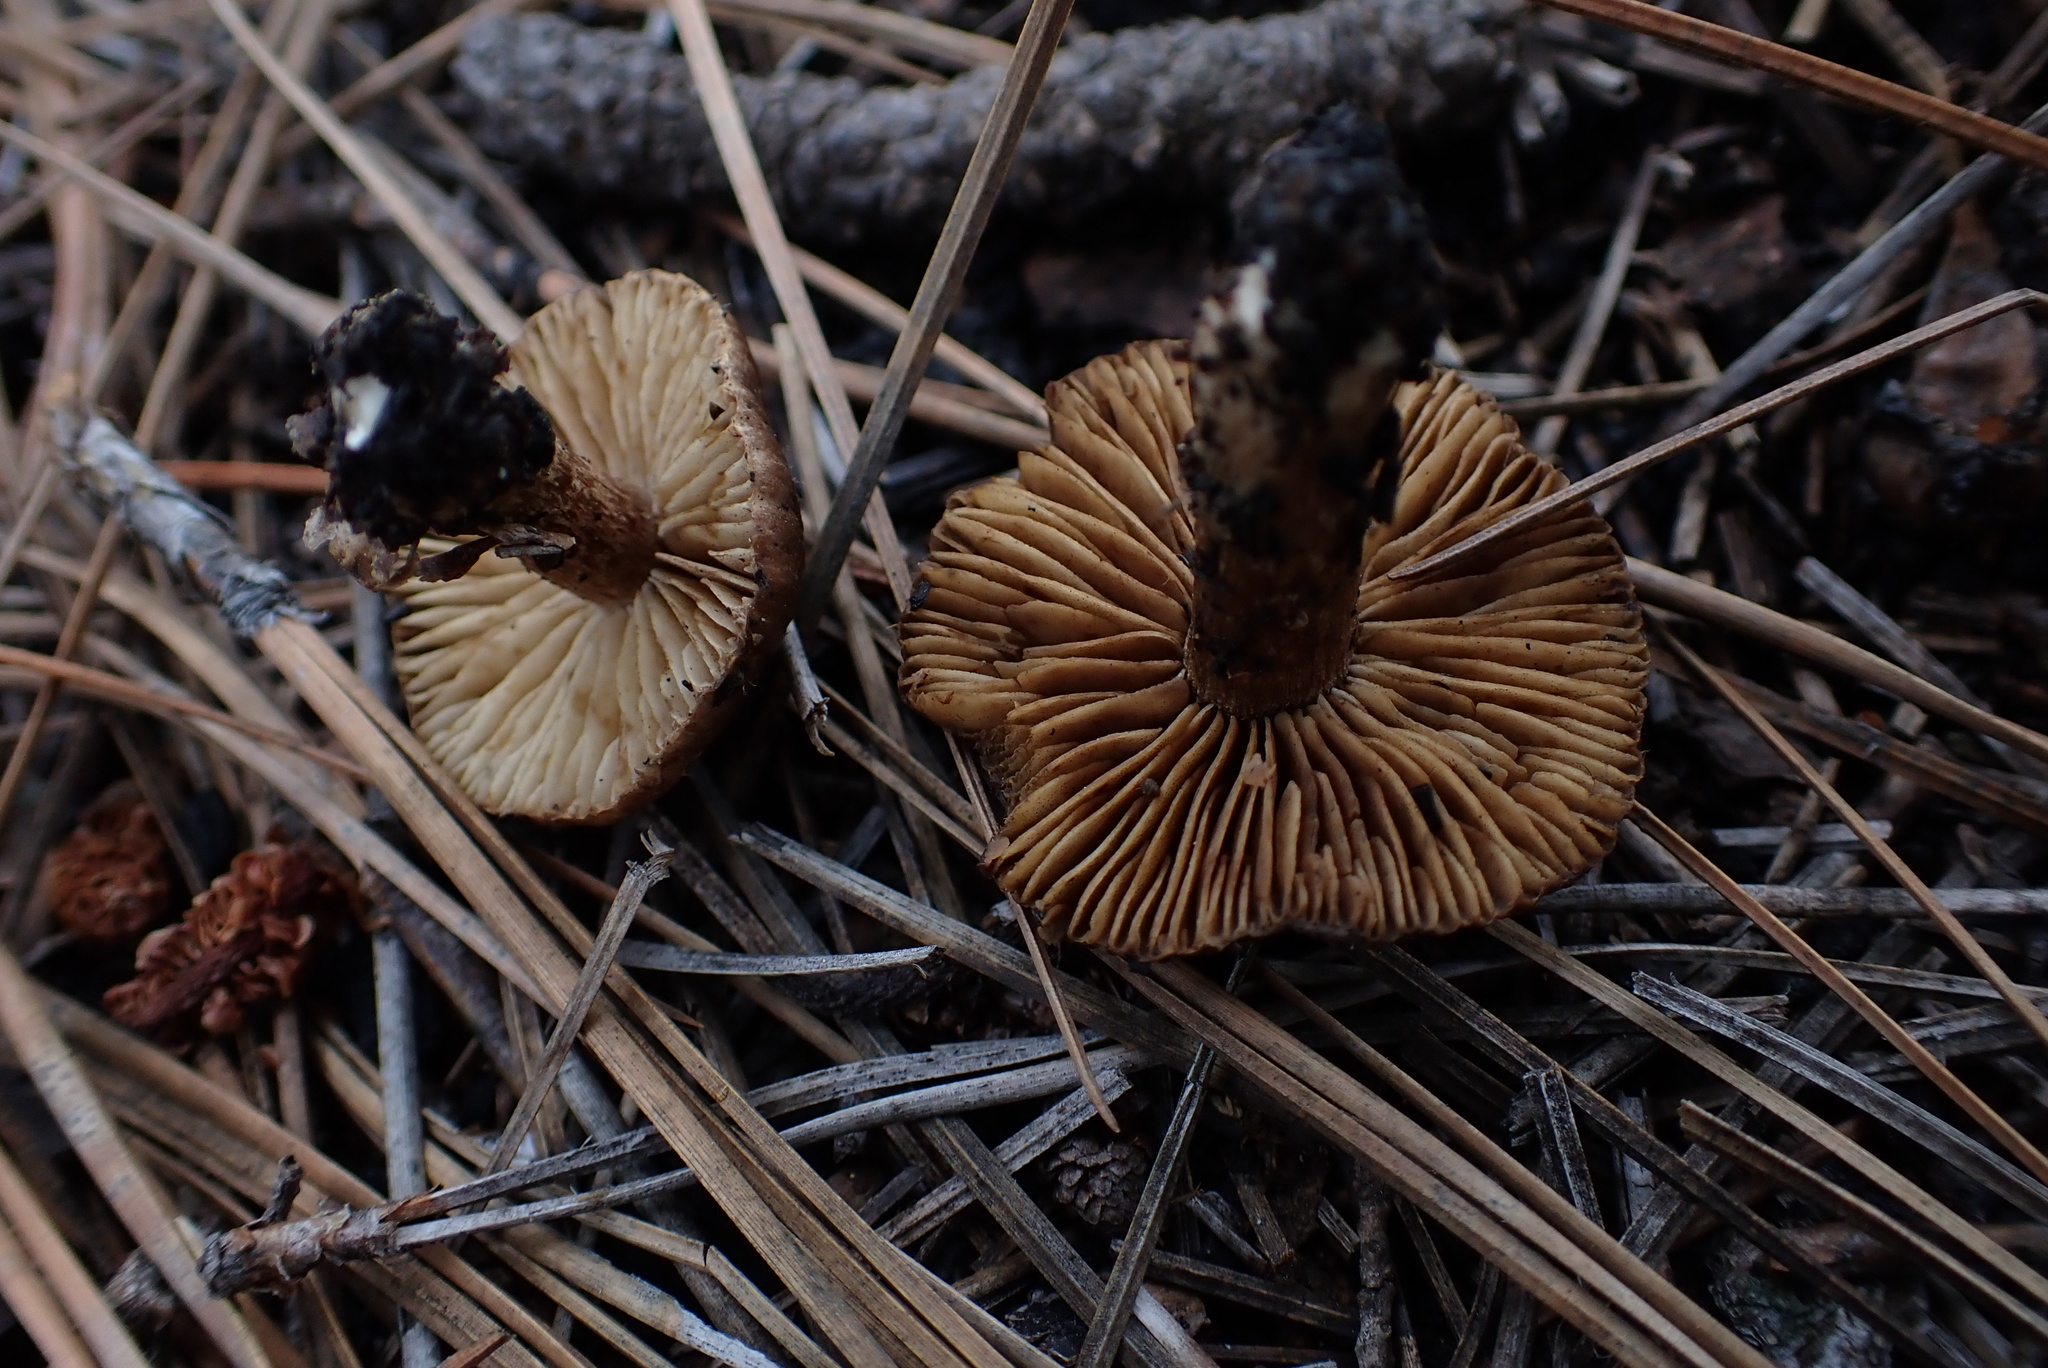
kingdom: Fungi
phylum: Basidiomycota
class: Agaricomycetes
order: Agaricales
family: Inocybaceae
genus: Inocybe
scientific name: Inocybe proximella
